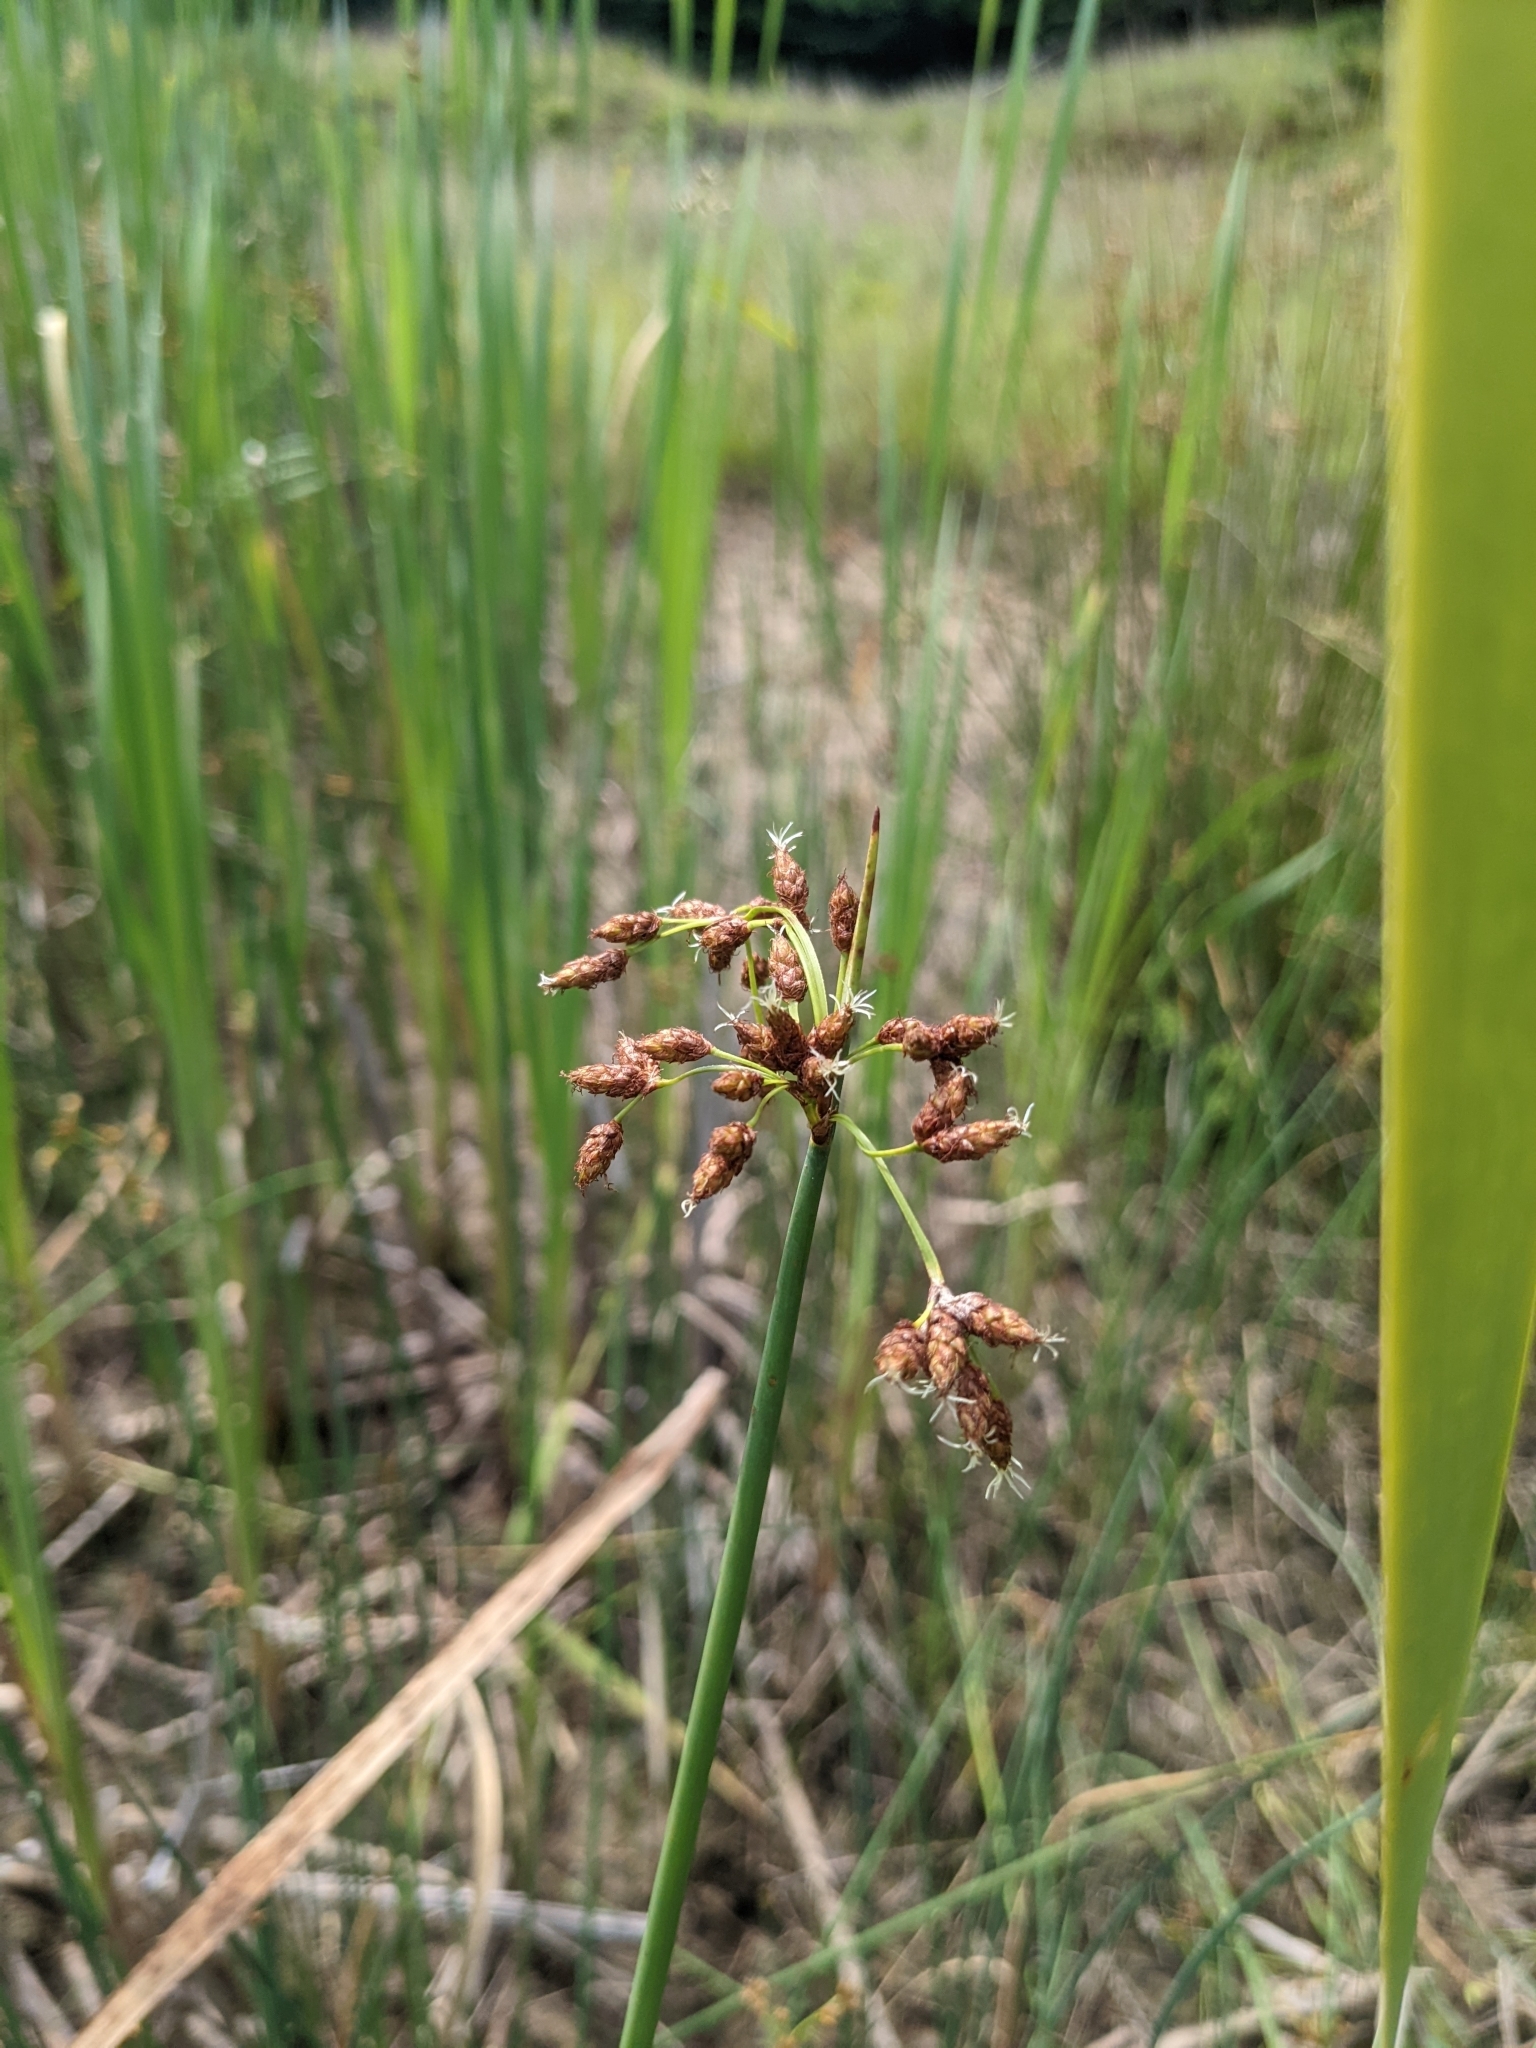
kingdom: Plantae
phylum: Tracheophyta
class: Liliopsida
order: Poales
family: Cyperaceae
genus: Schoenoplectus
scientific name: Schoenoplectus tabernaemontani
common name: Grey club-rush
